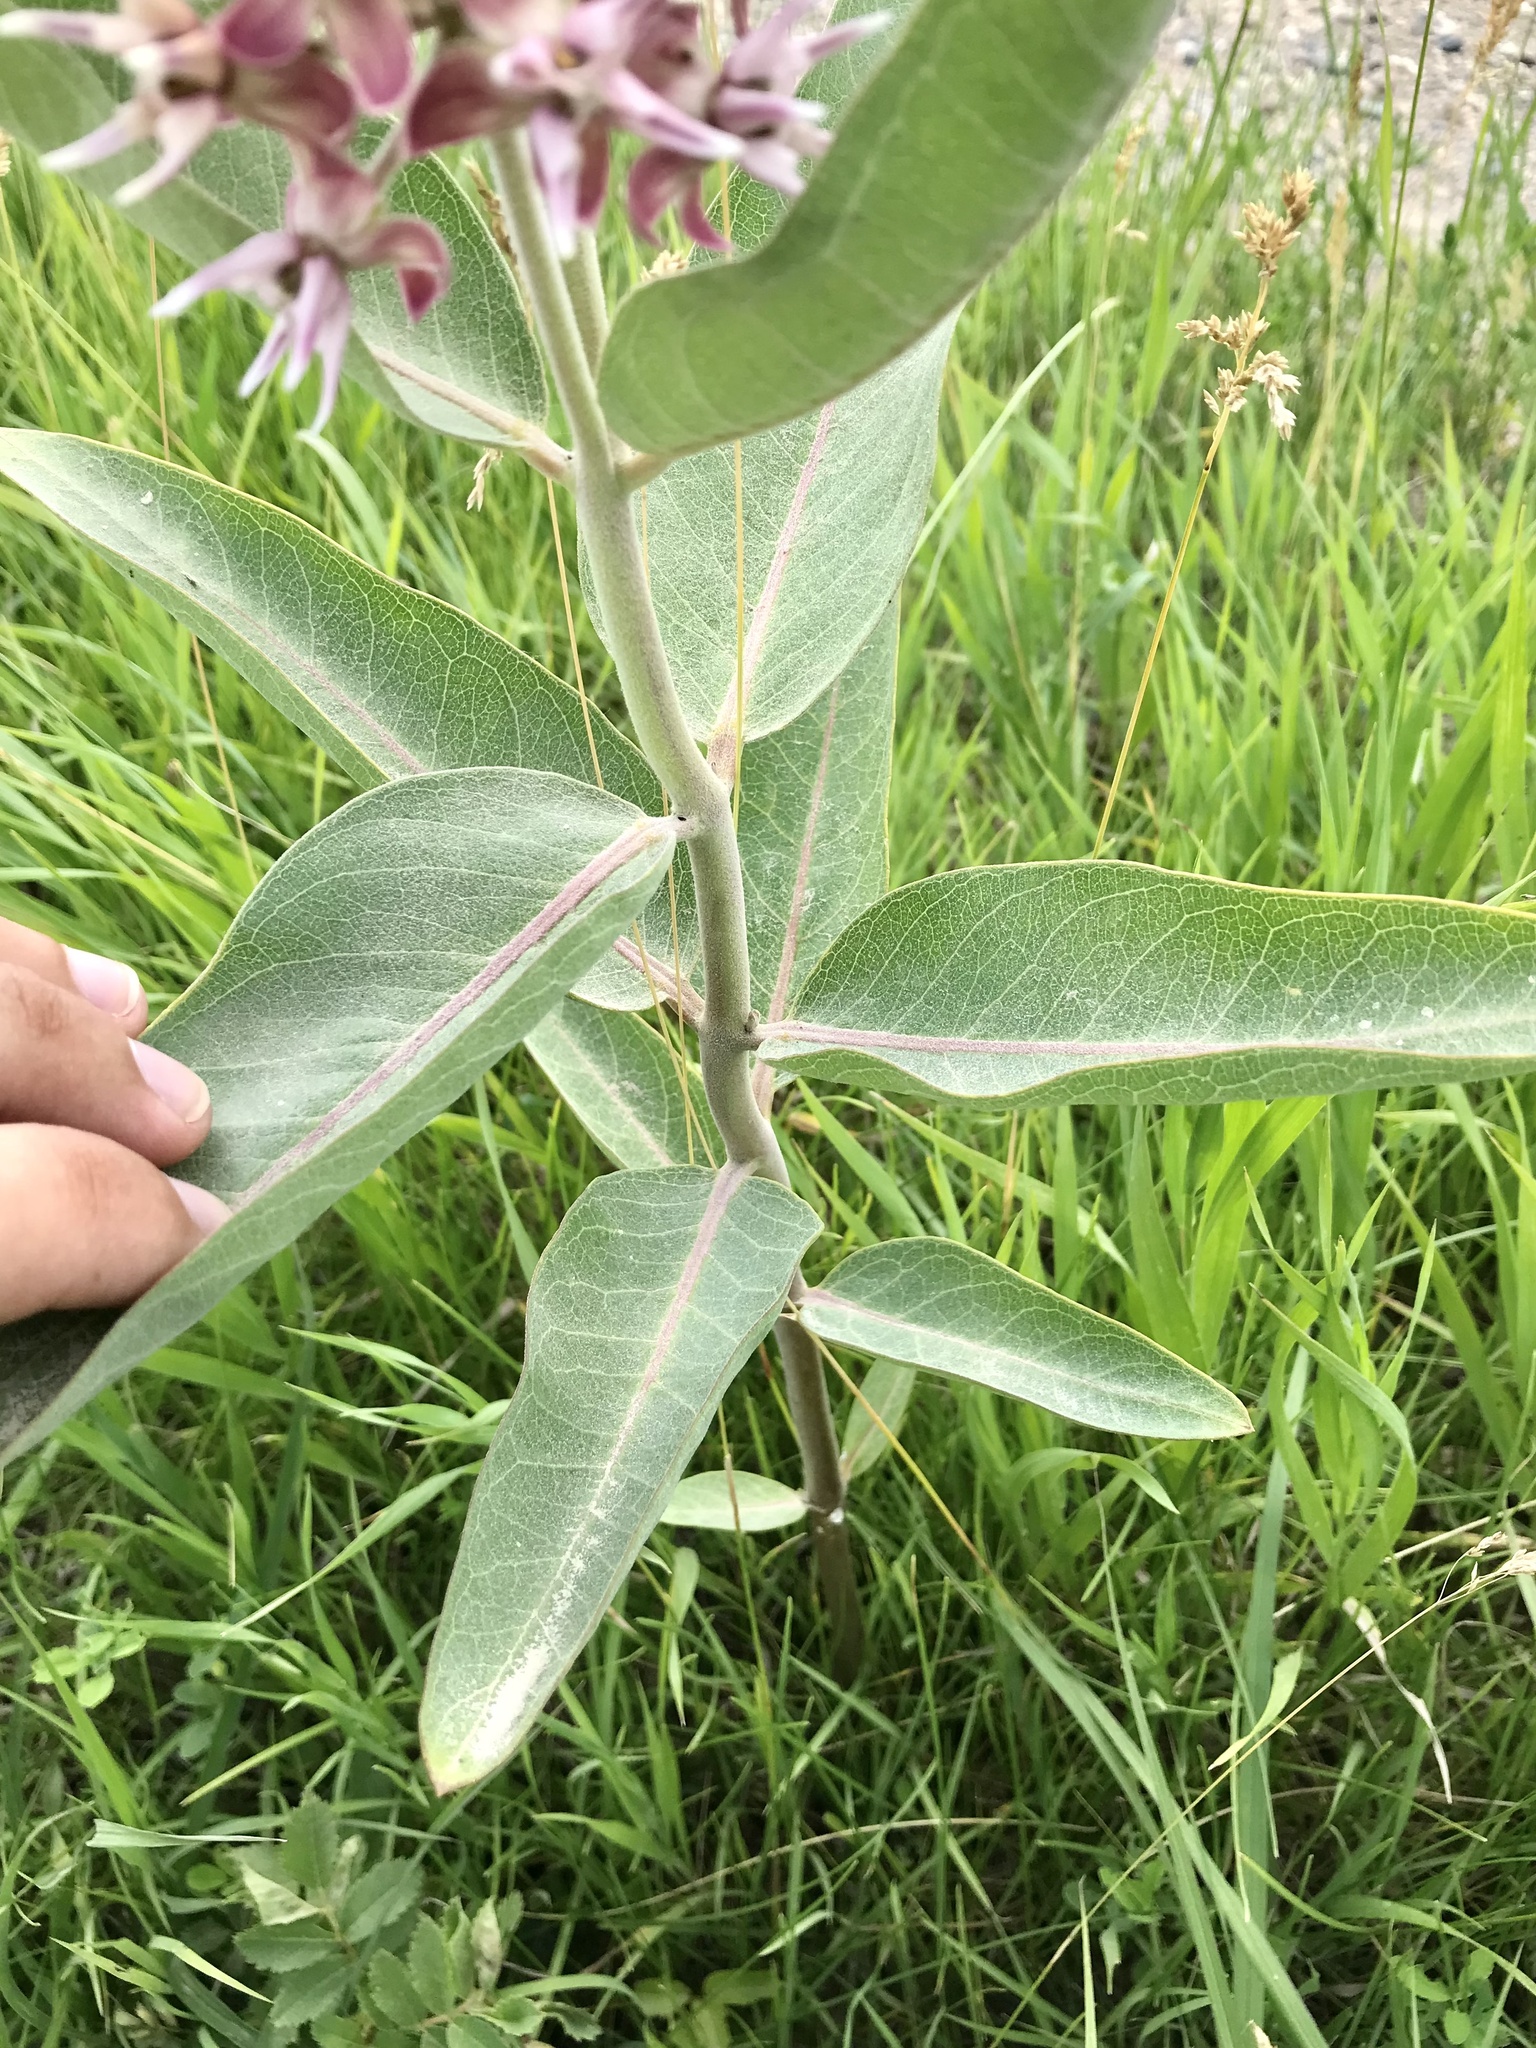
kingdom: Plantae
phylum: Tracheophyta
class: Magnoliopsida
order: Gentianales
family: Apocynaceae
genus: Asclepias
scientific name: Asclepias speciosa
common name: Showy milkweed
